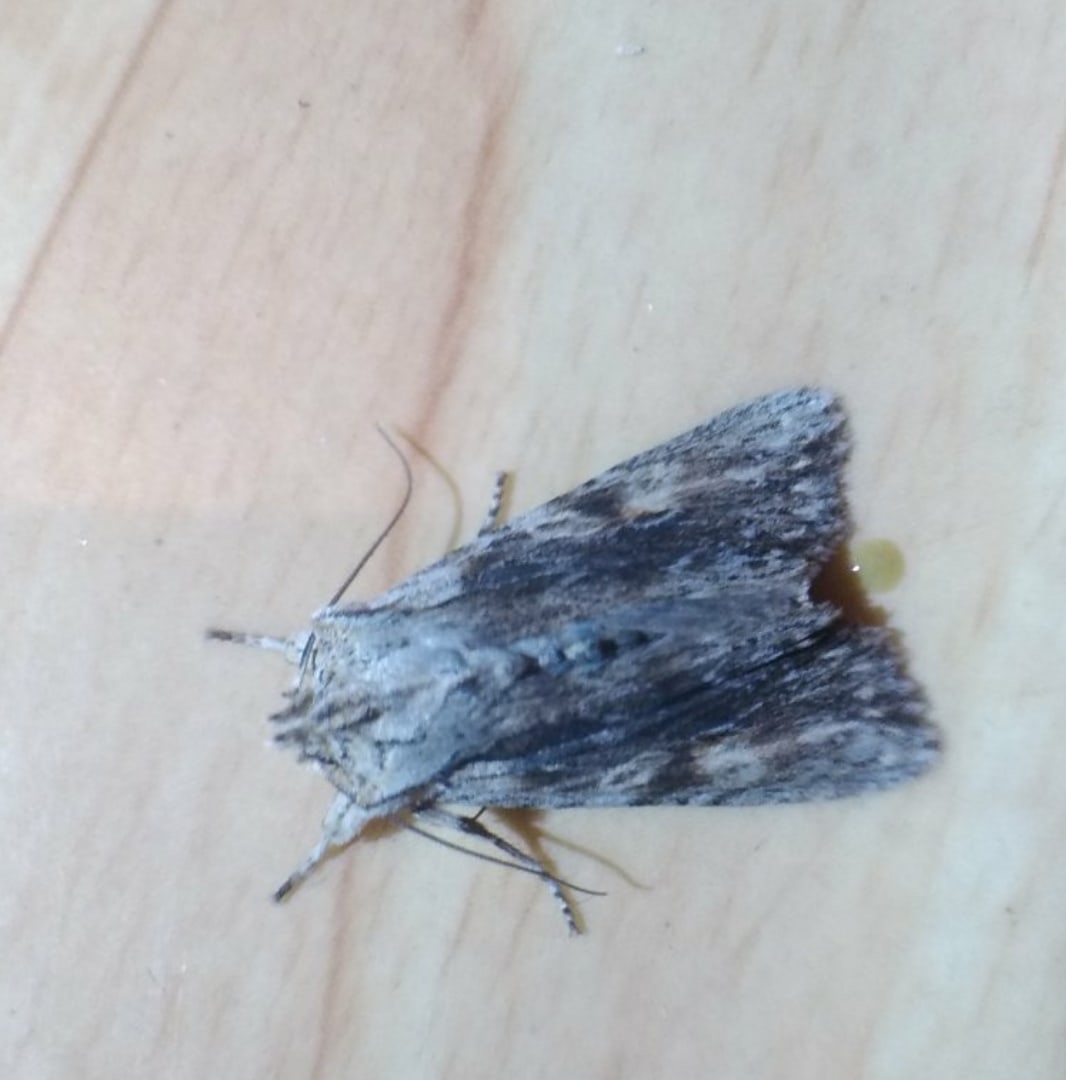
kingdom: Animalia
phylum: Arthropoda
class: Insecta
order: Lepidoptera
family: Noctuidae
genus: Lithophane
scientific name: Lithophane socia
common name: Pale pinion
